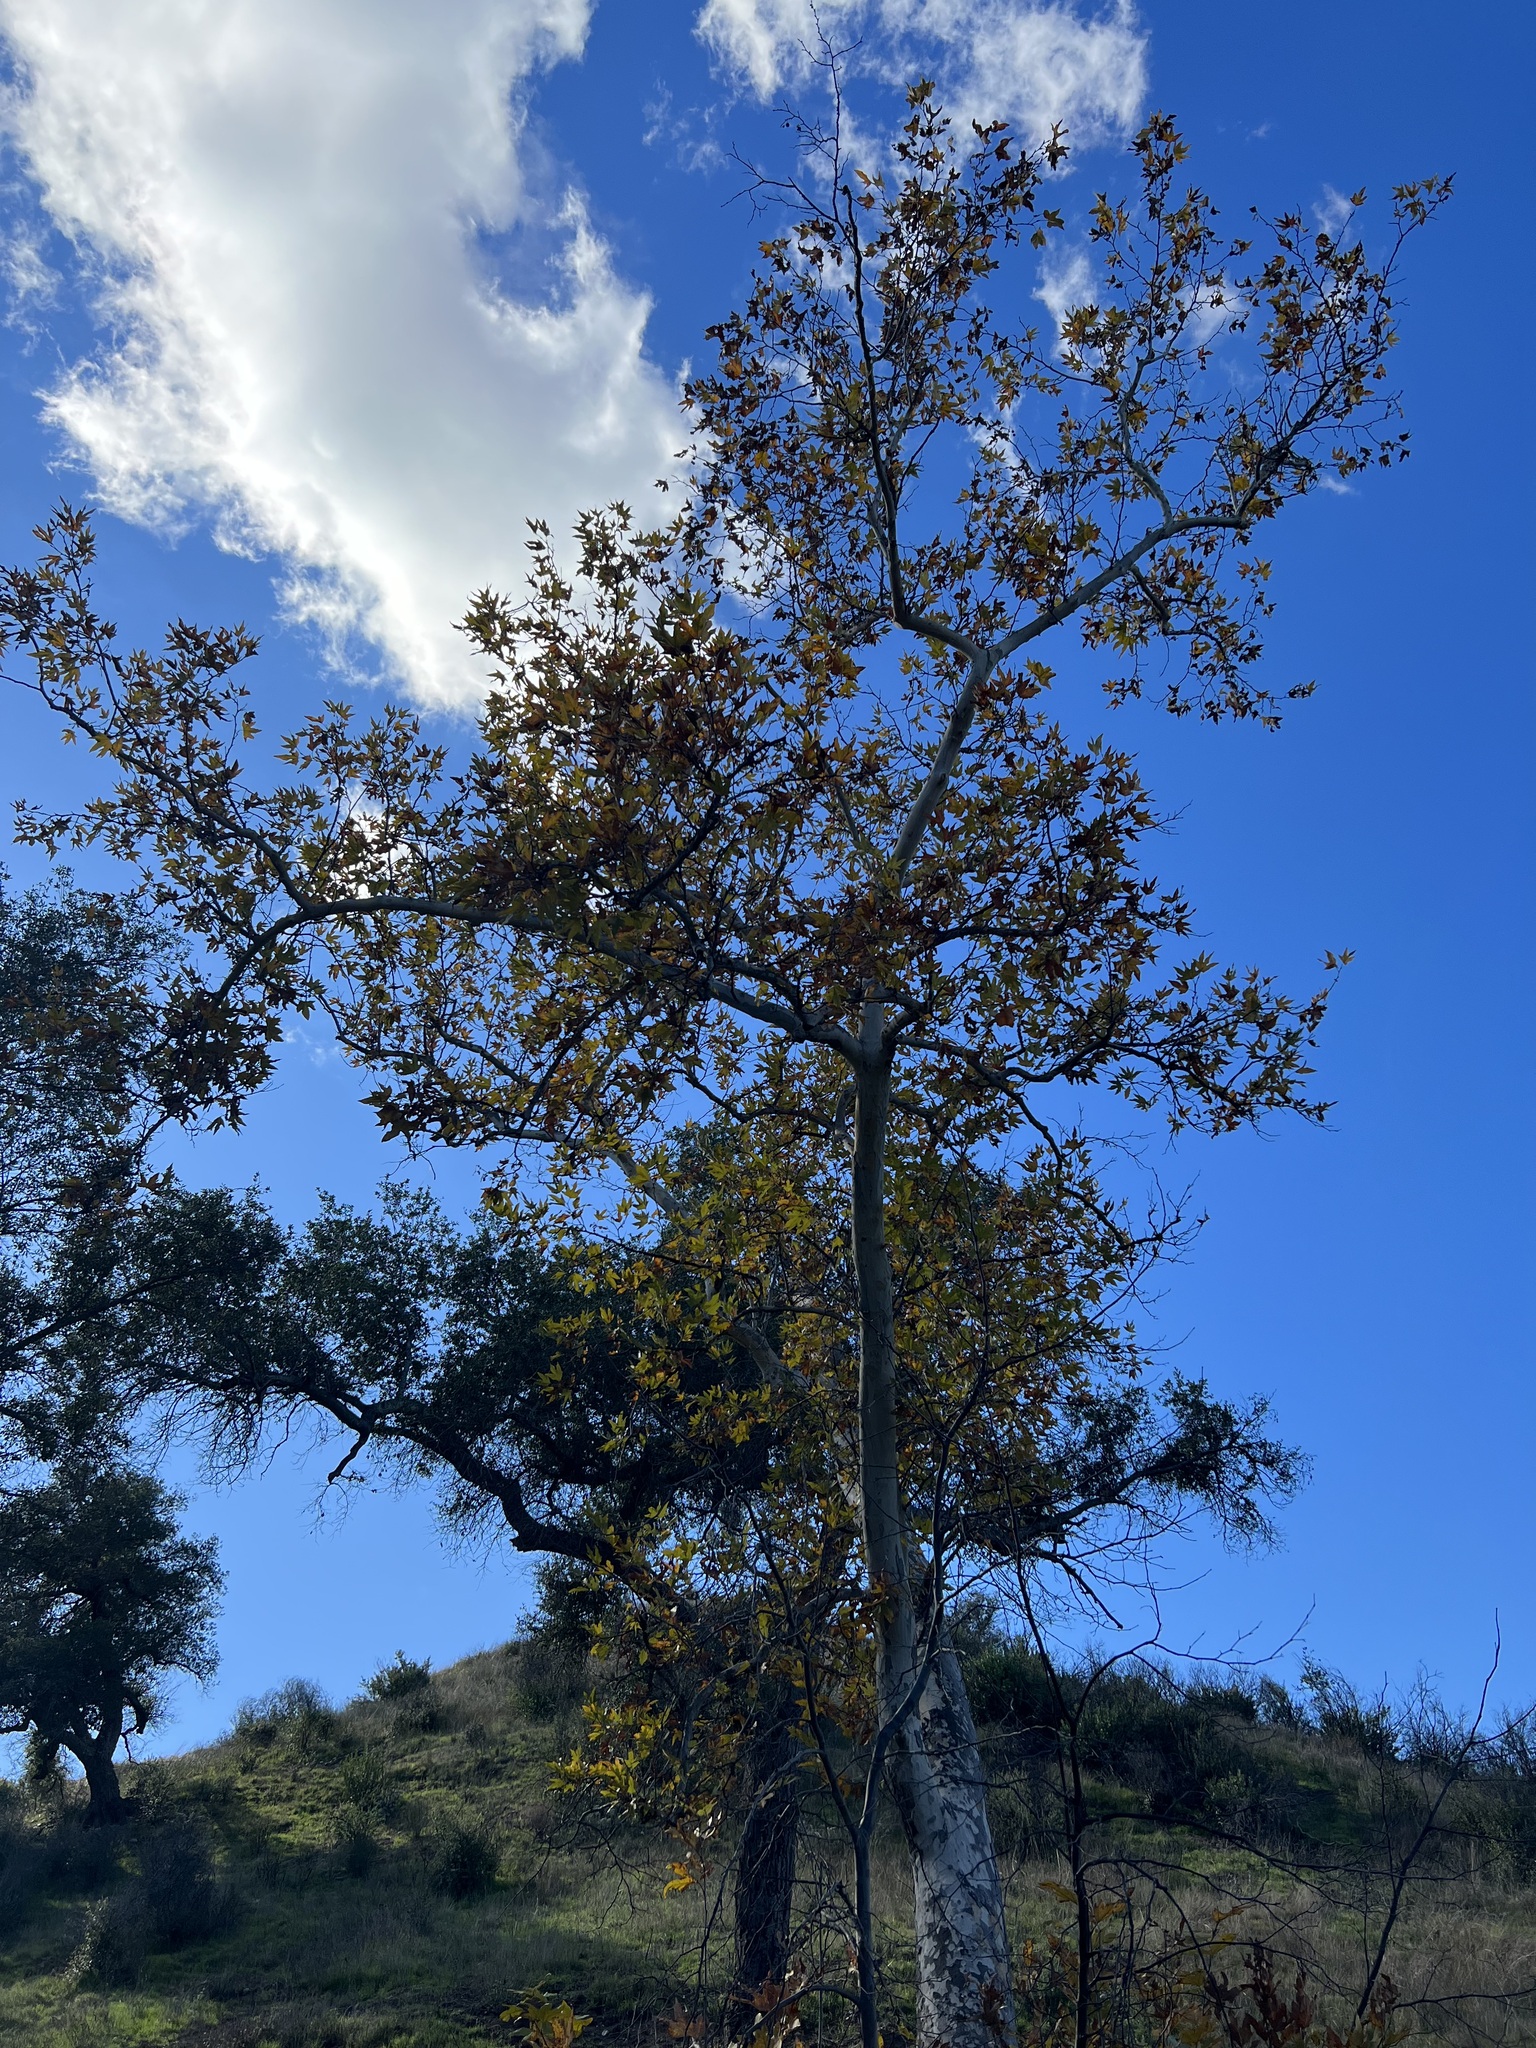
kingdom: Plantae
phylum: Tracheophyta
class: Magnoliopsida
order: Proteales
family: Platanaceae
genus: Platanus
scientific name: Platanus racemosa
